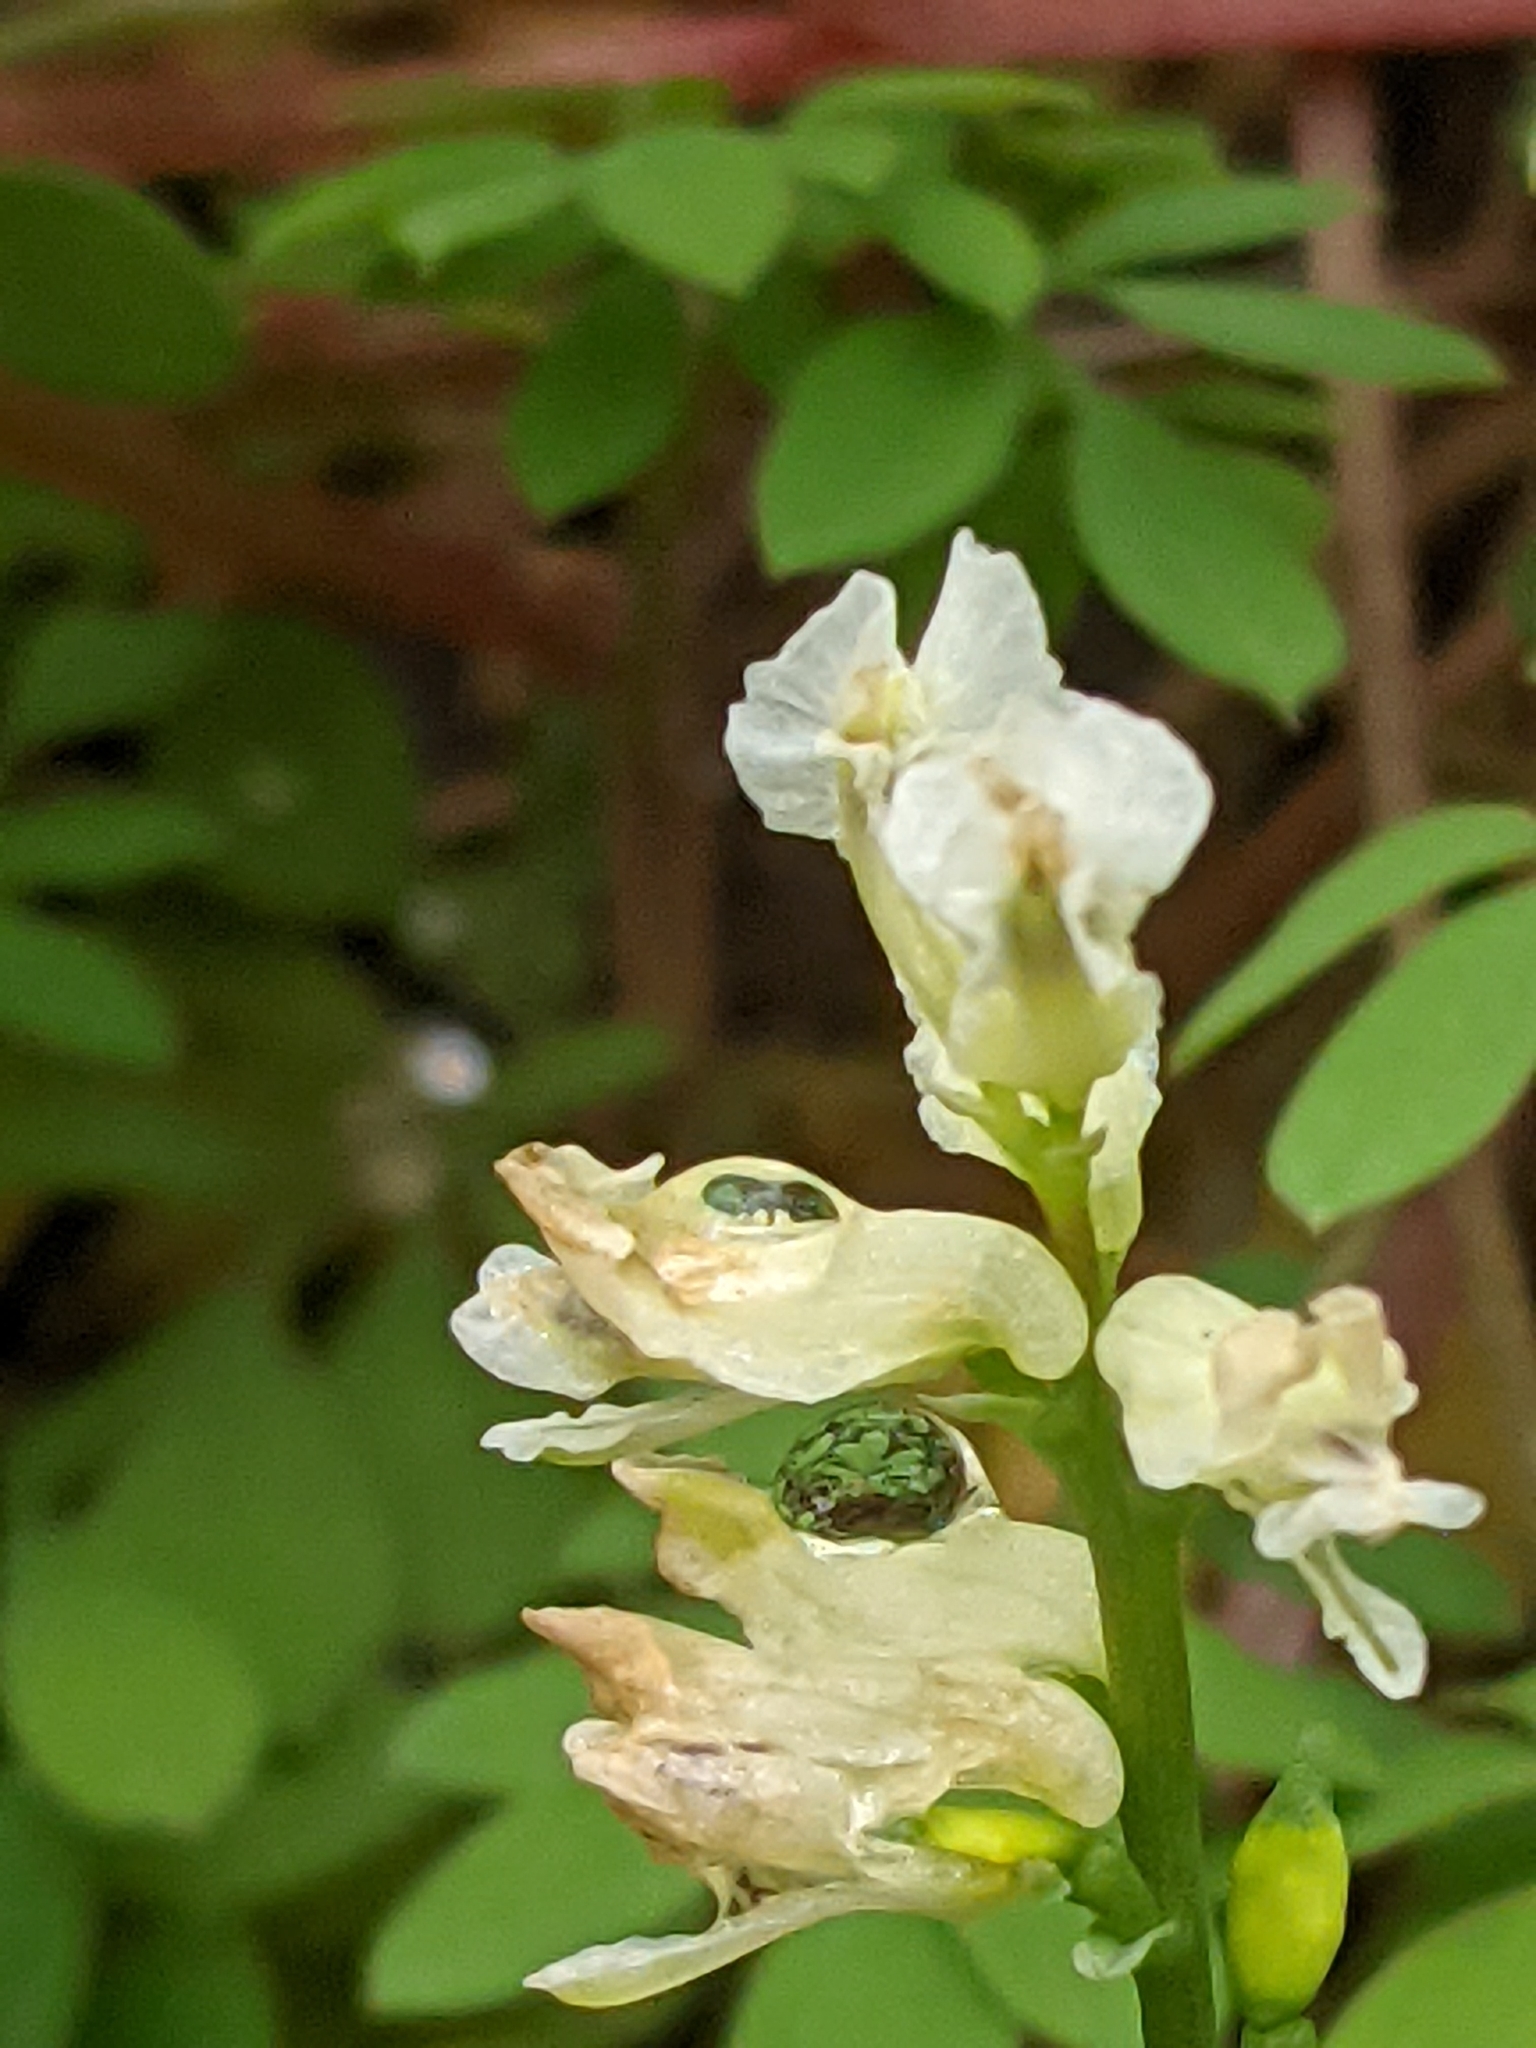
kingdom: Plantae
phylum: Tracheophyta
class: Magnoliopsida
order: Ranunculales
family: Papaveraceae
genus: Ceratocapnos
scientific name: Ceratocapnos claviculata
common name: Climbing corydalis
